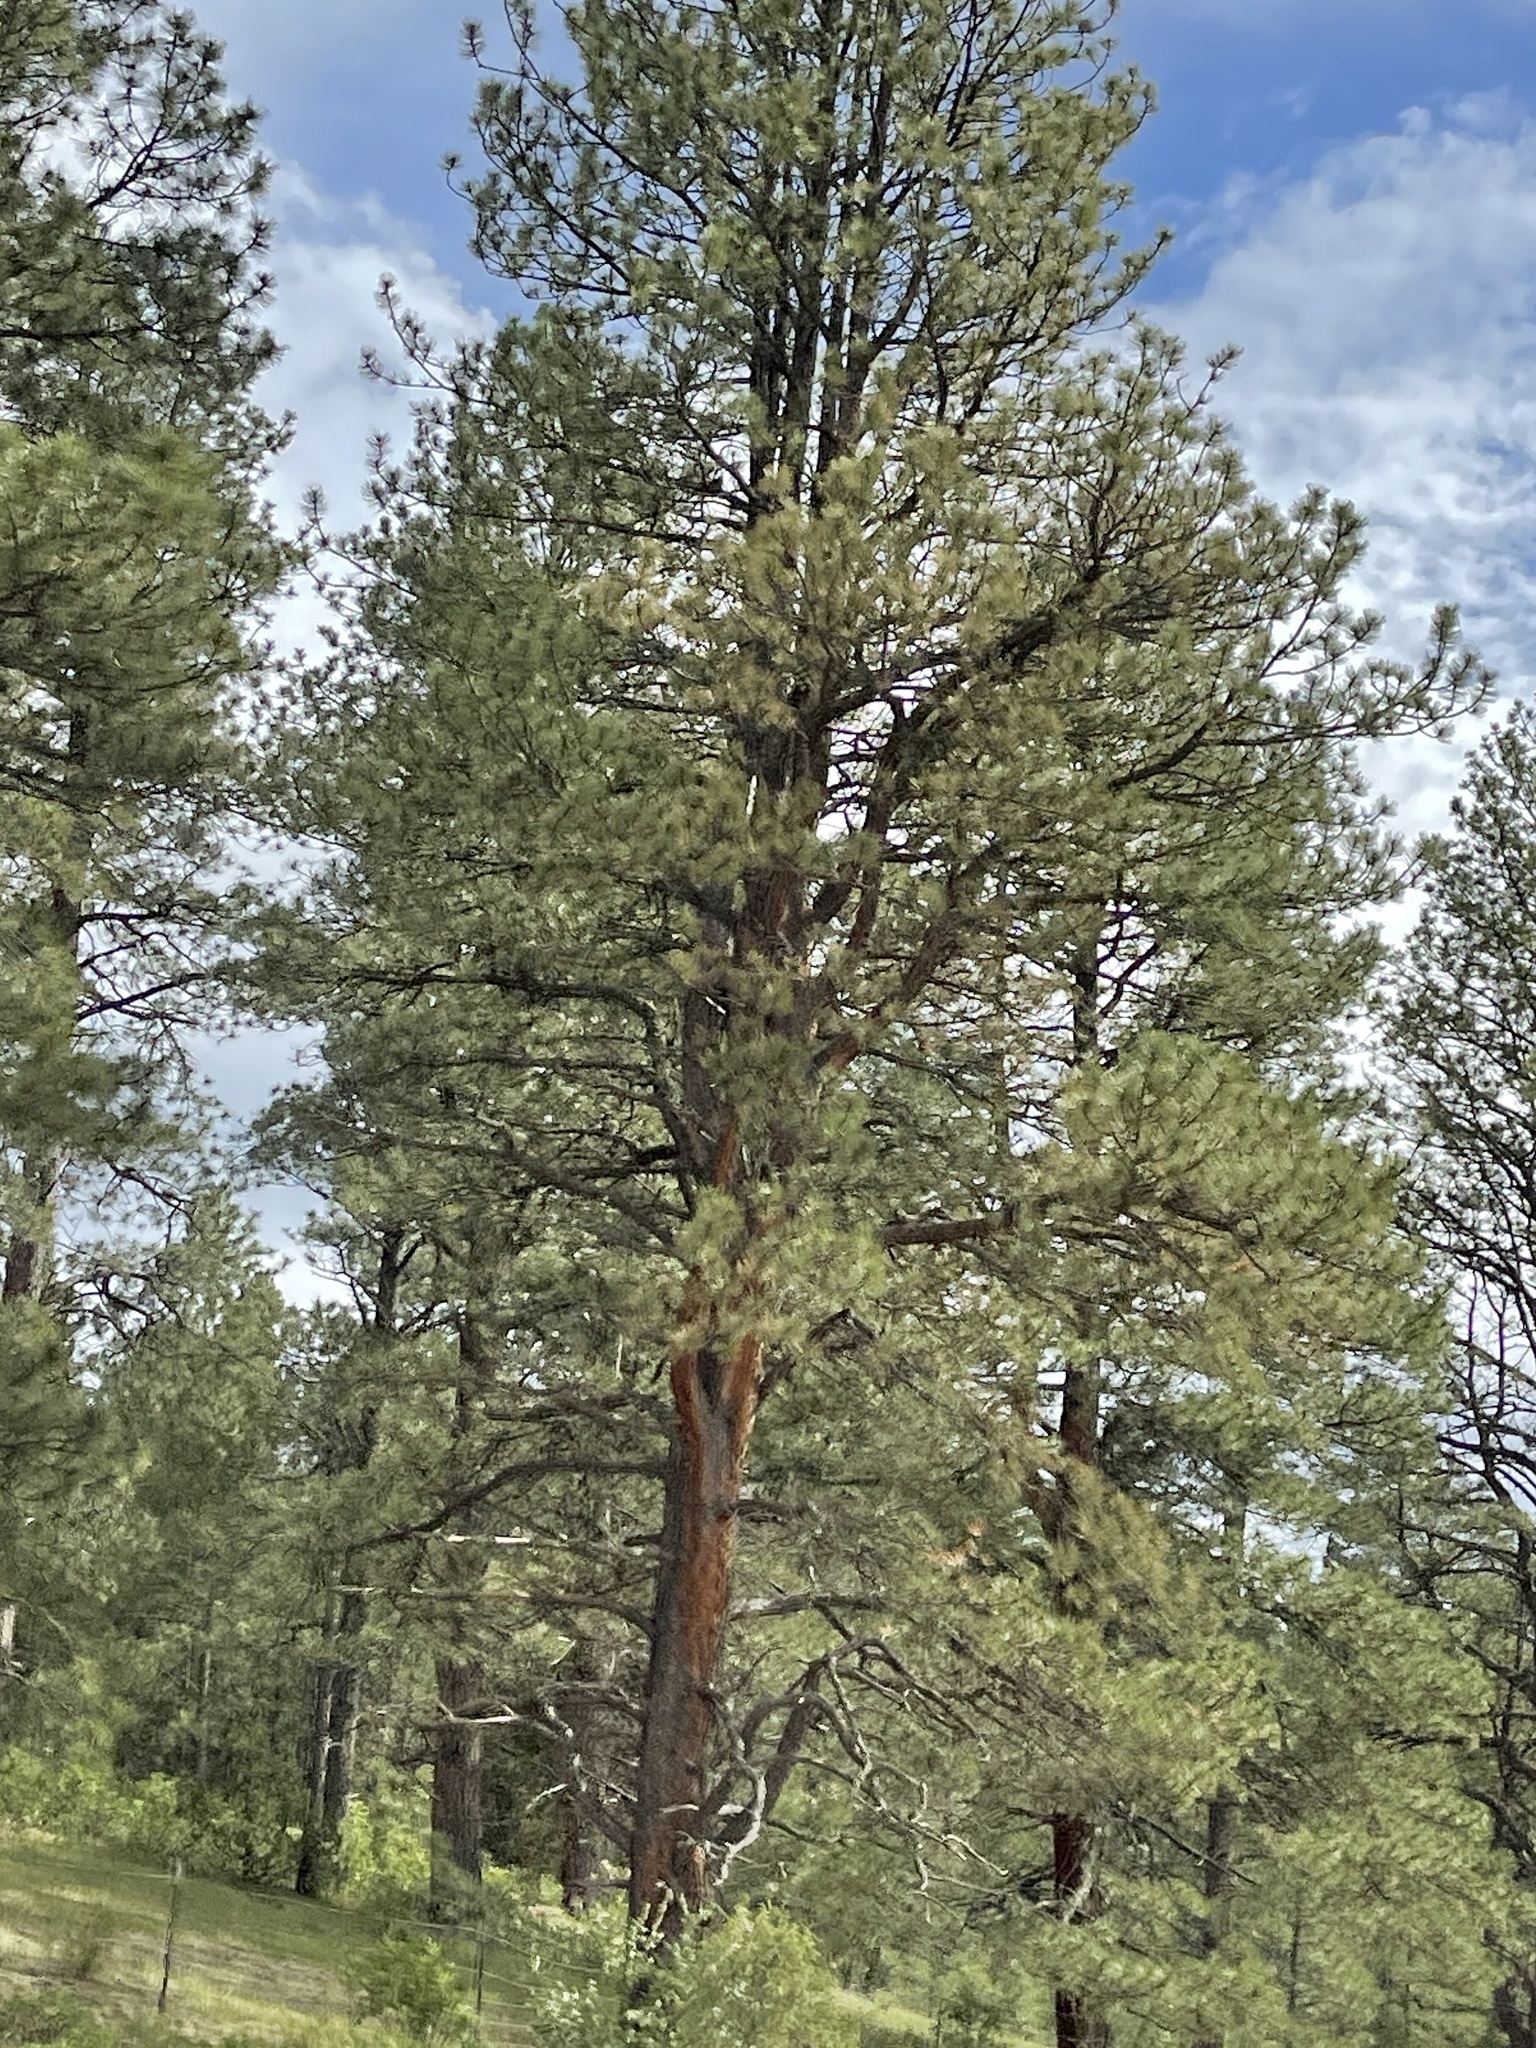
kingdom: Plantae
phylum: Tracheophyta
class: Pinopsida
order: Pinales
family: Pinaceae
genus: Pinus
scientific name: Pinus ponderosa
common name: Western yellow-pine
